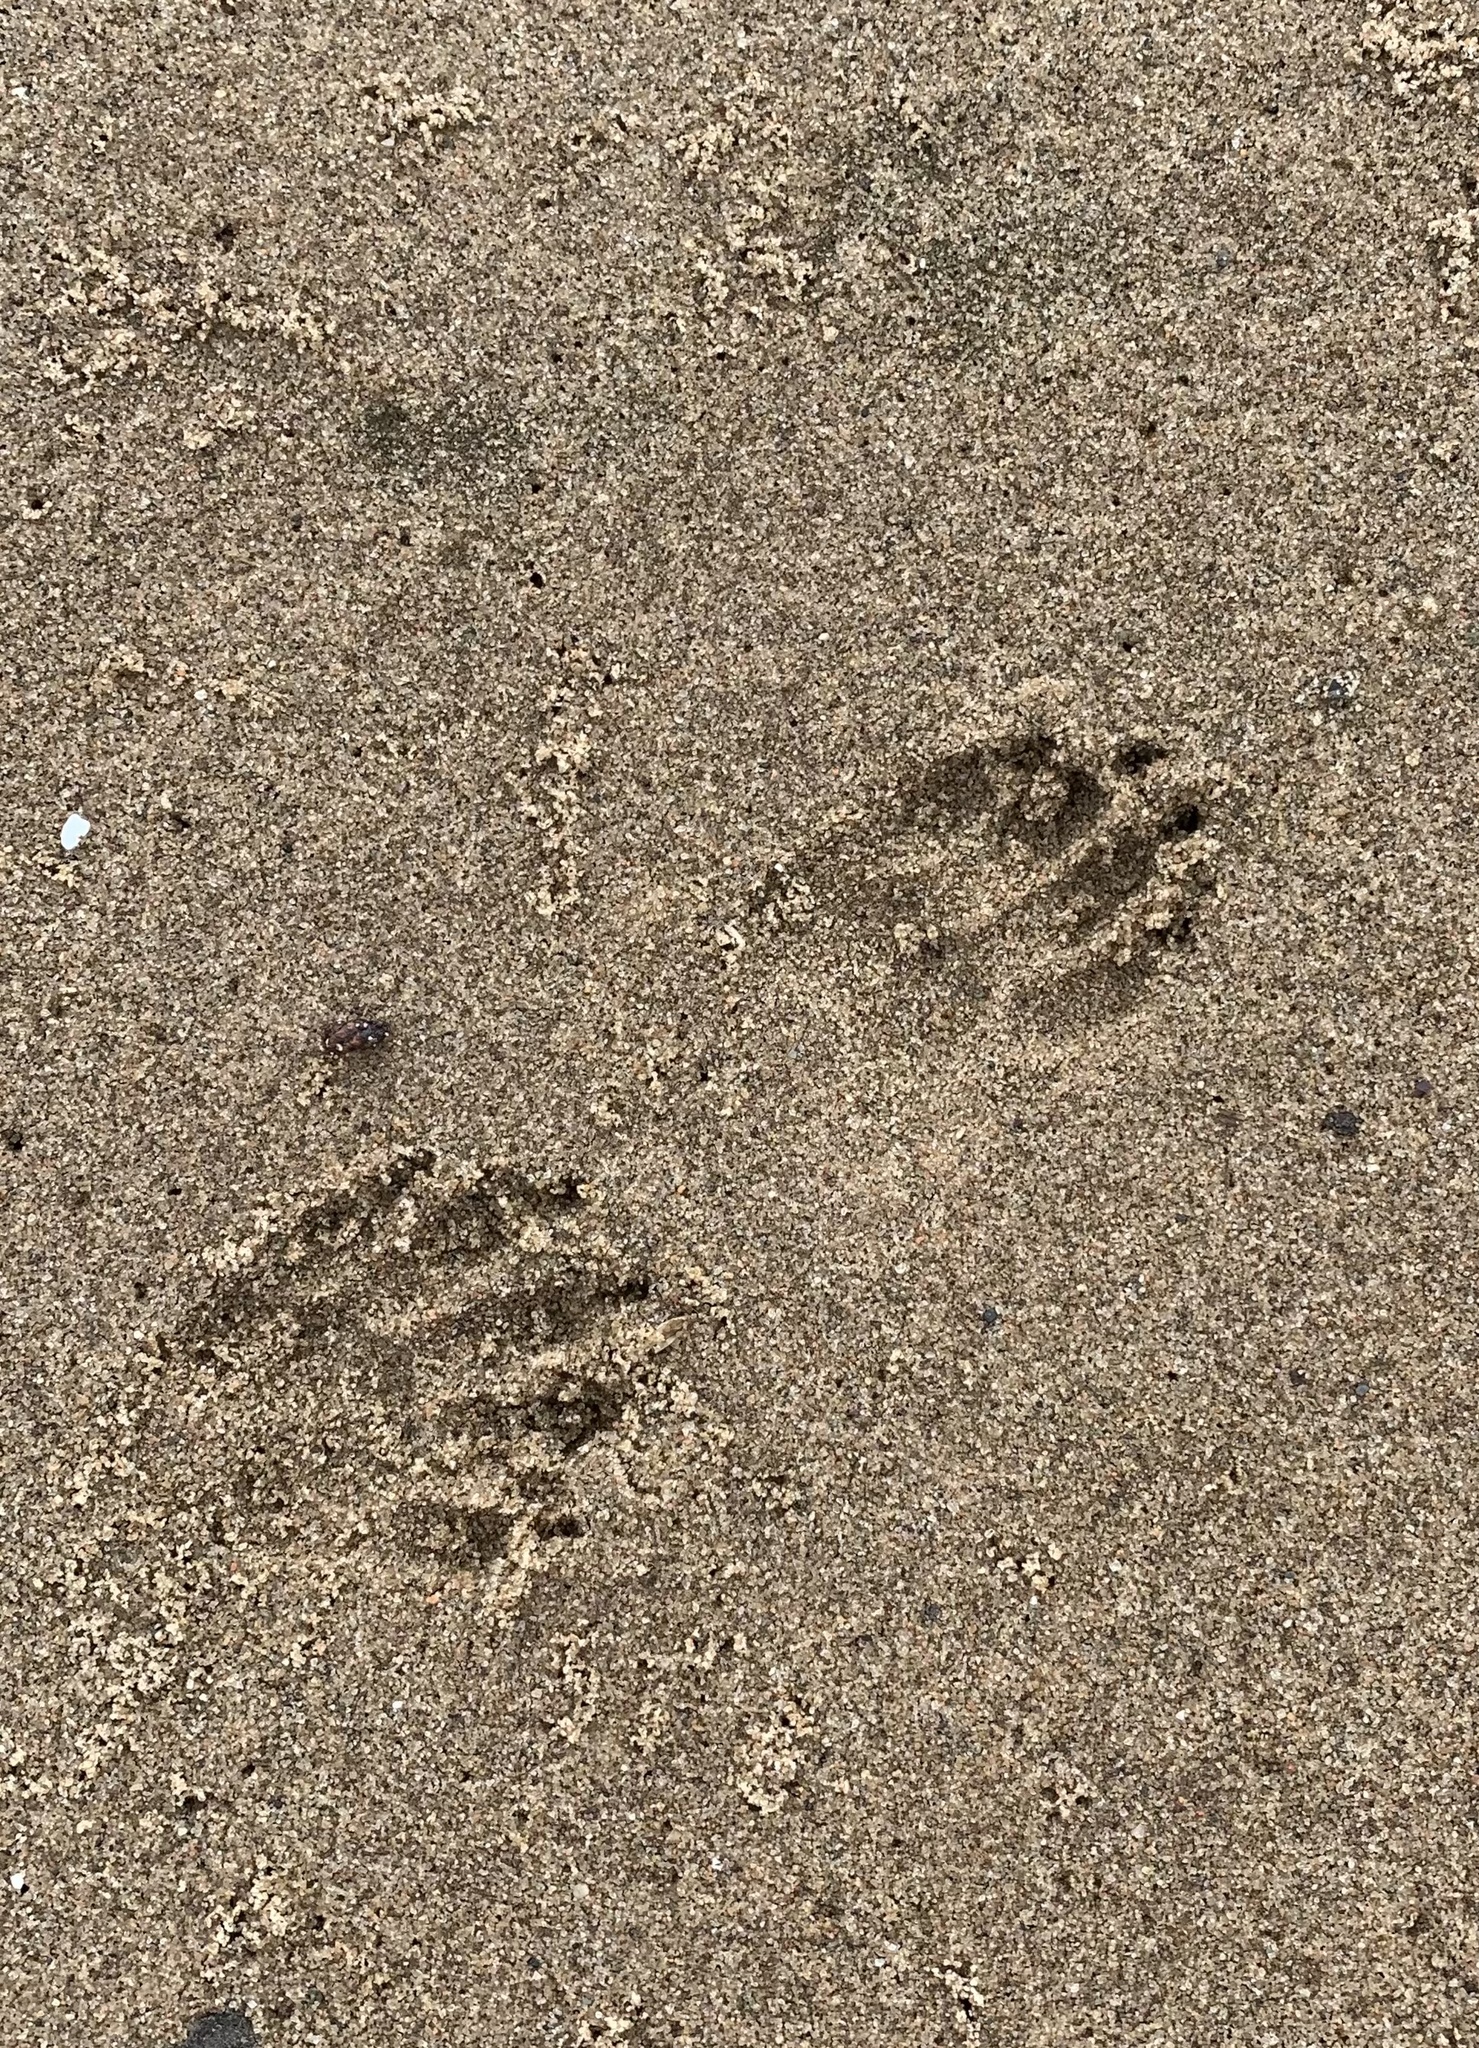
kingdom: Animalia
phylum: Chordata
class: Mammalia
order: Carnivora
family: Procyonidae
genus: Procyon
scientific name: Procyon lotor
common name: Raccoon
